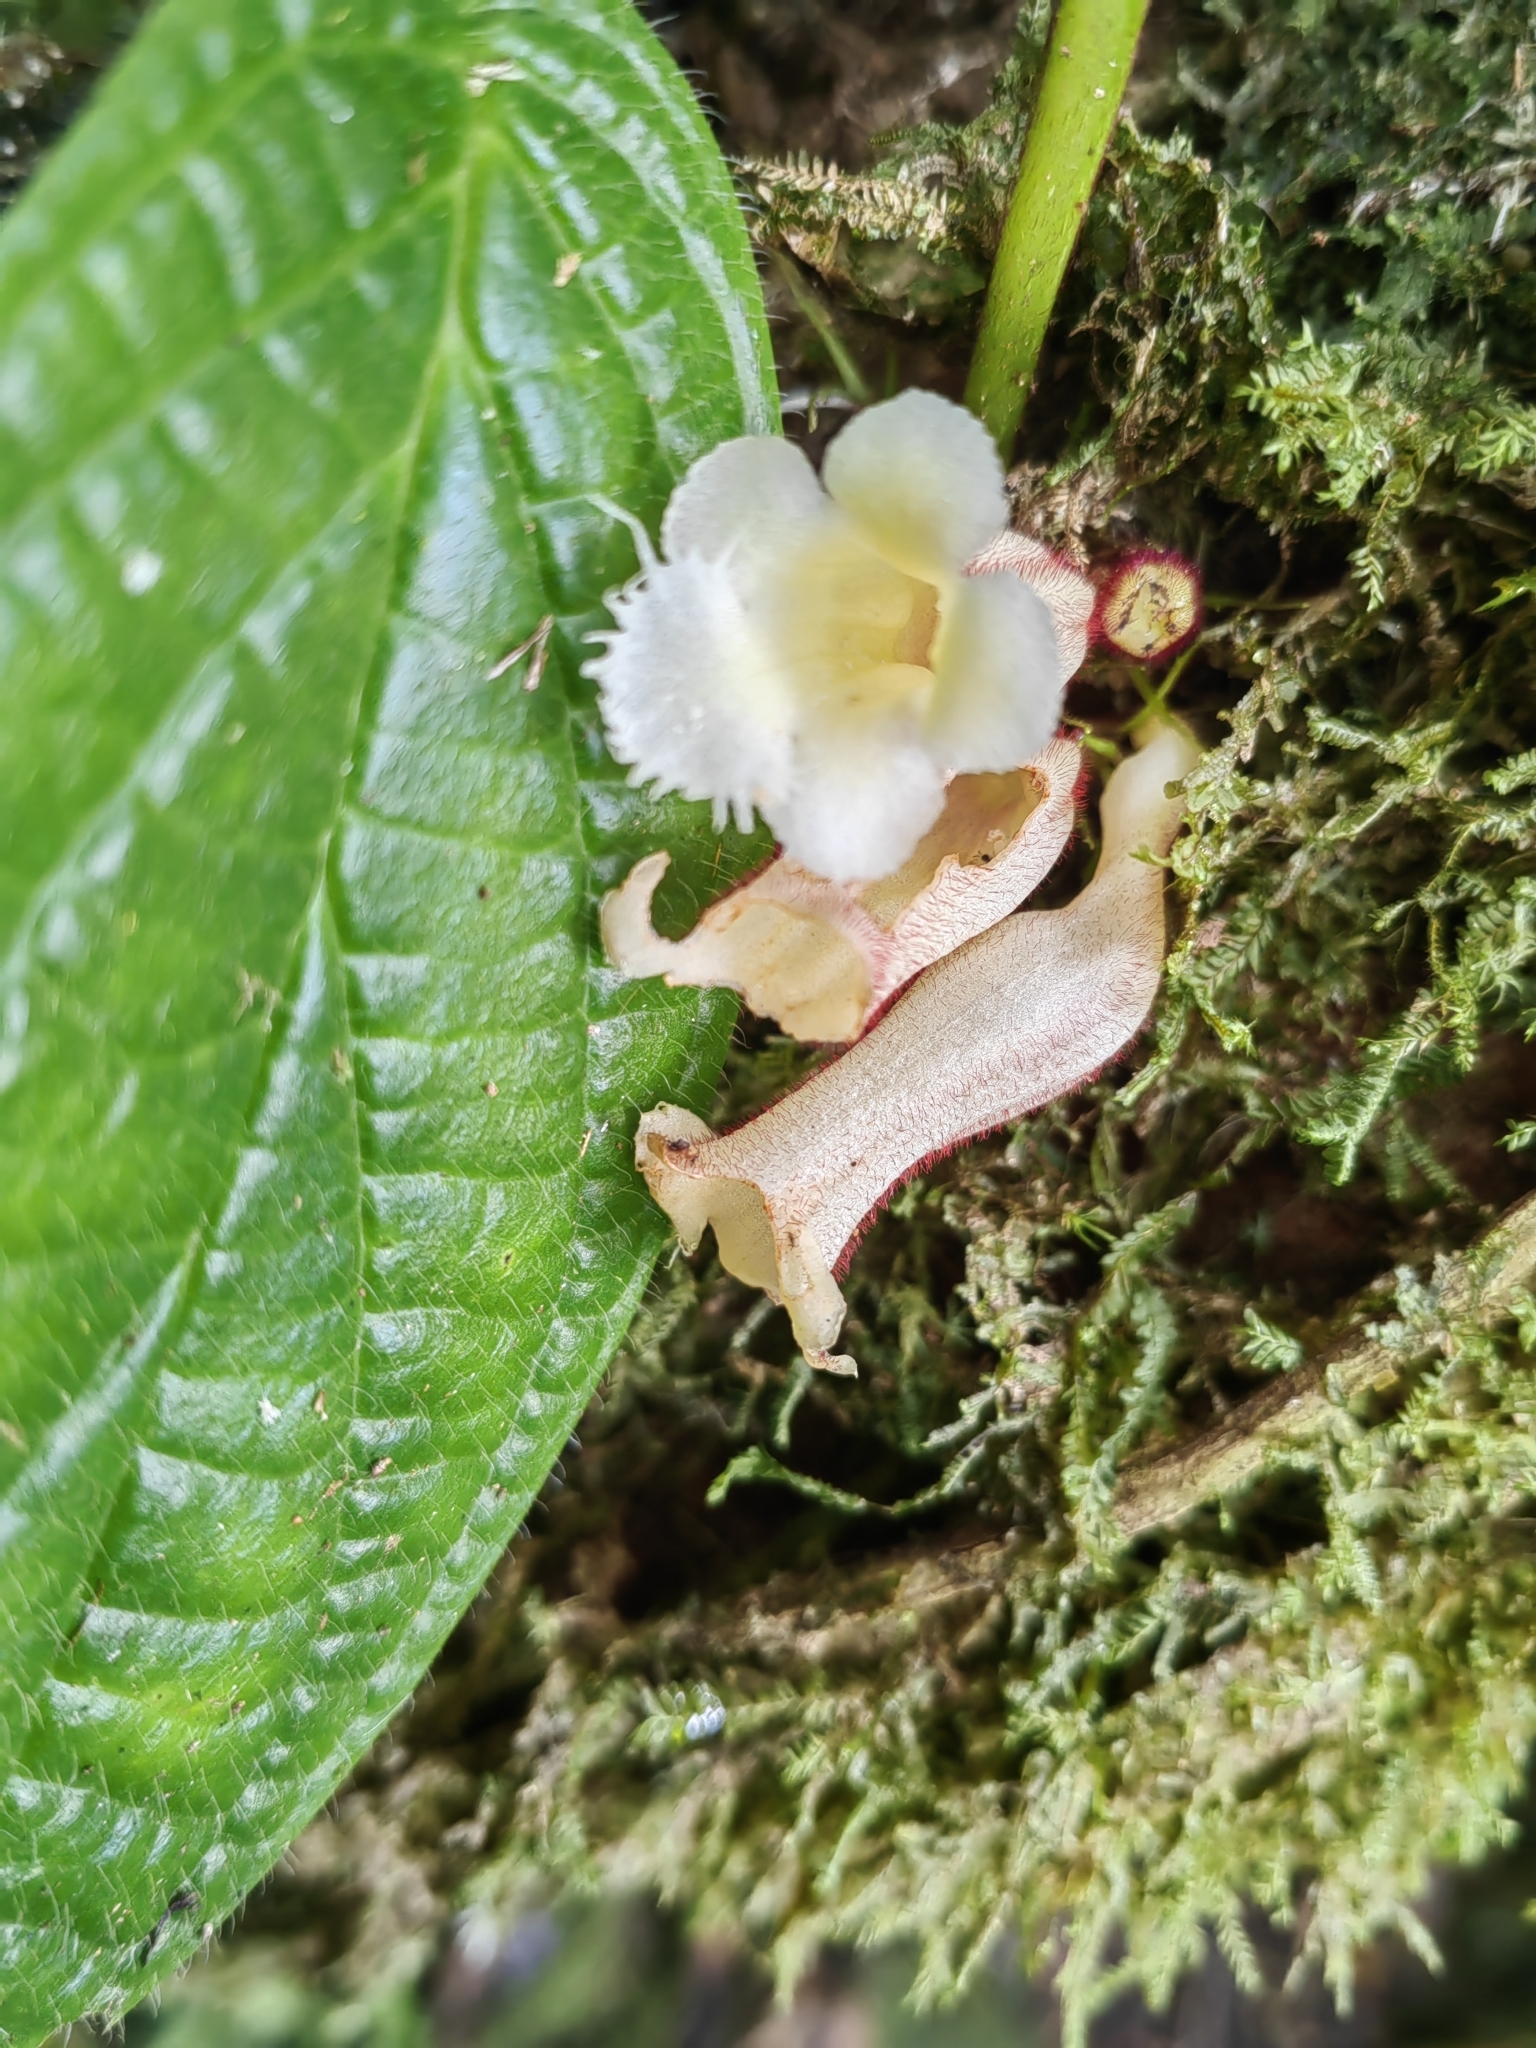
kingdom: Plantae
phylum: Tracheophyta
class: Magnoliopsida
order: Lamiales
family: Gesneriaceae
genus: Paradrymonia
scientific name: Paradrymonia ciliosa
